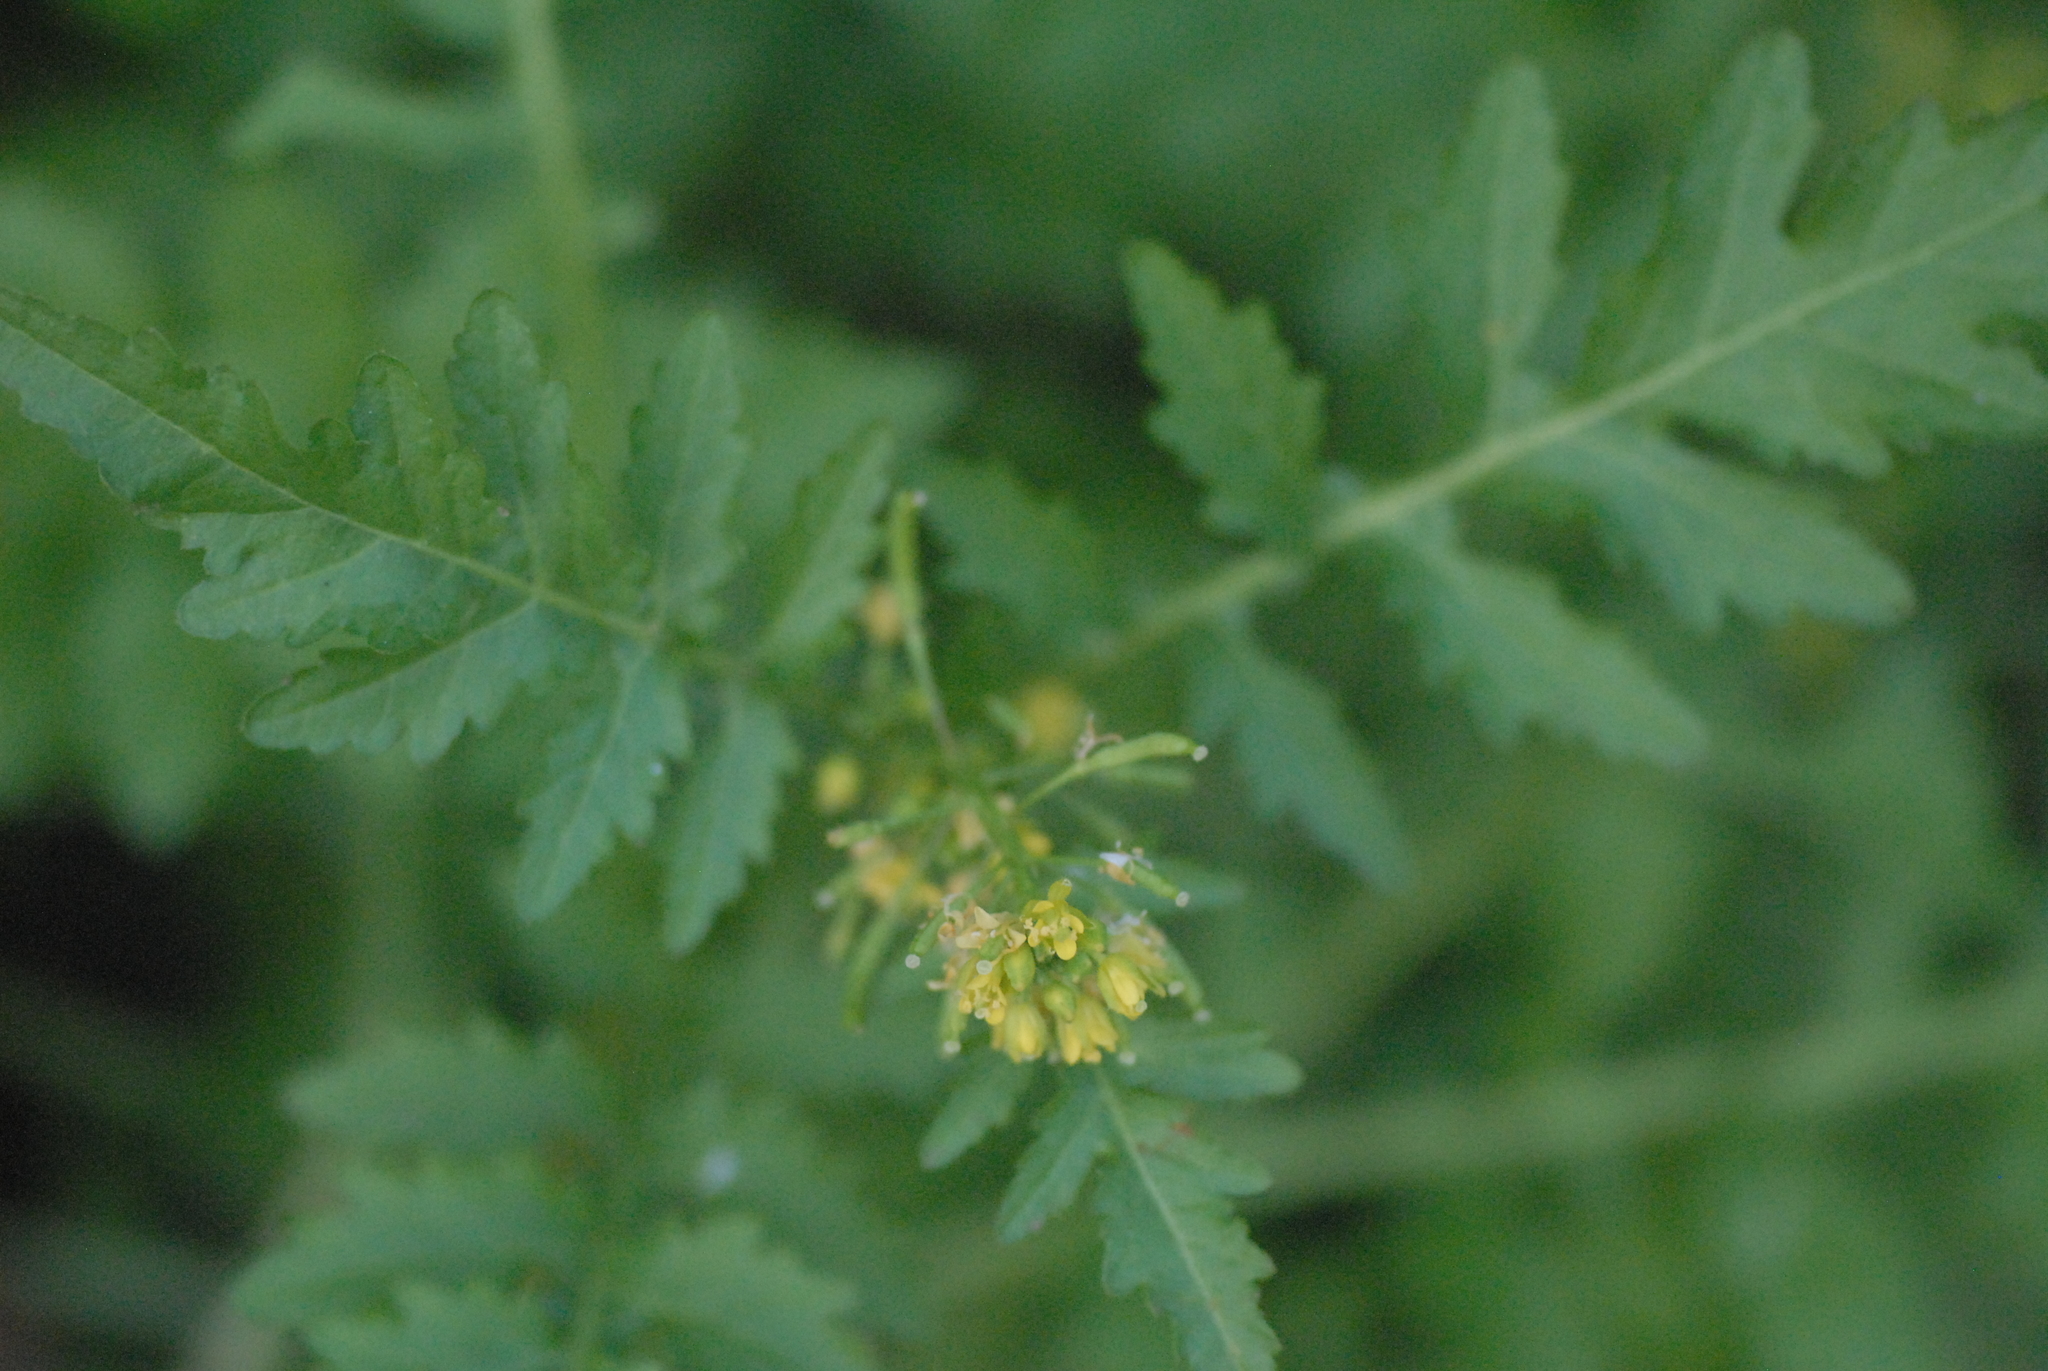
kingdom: Plantae
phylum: Tracheophyta
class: Magnoliopsida
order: Brassicales
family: Brassicaceae
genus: Rorippa
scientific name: Rorippa palustris
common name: Marsh yellow-cress
